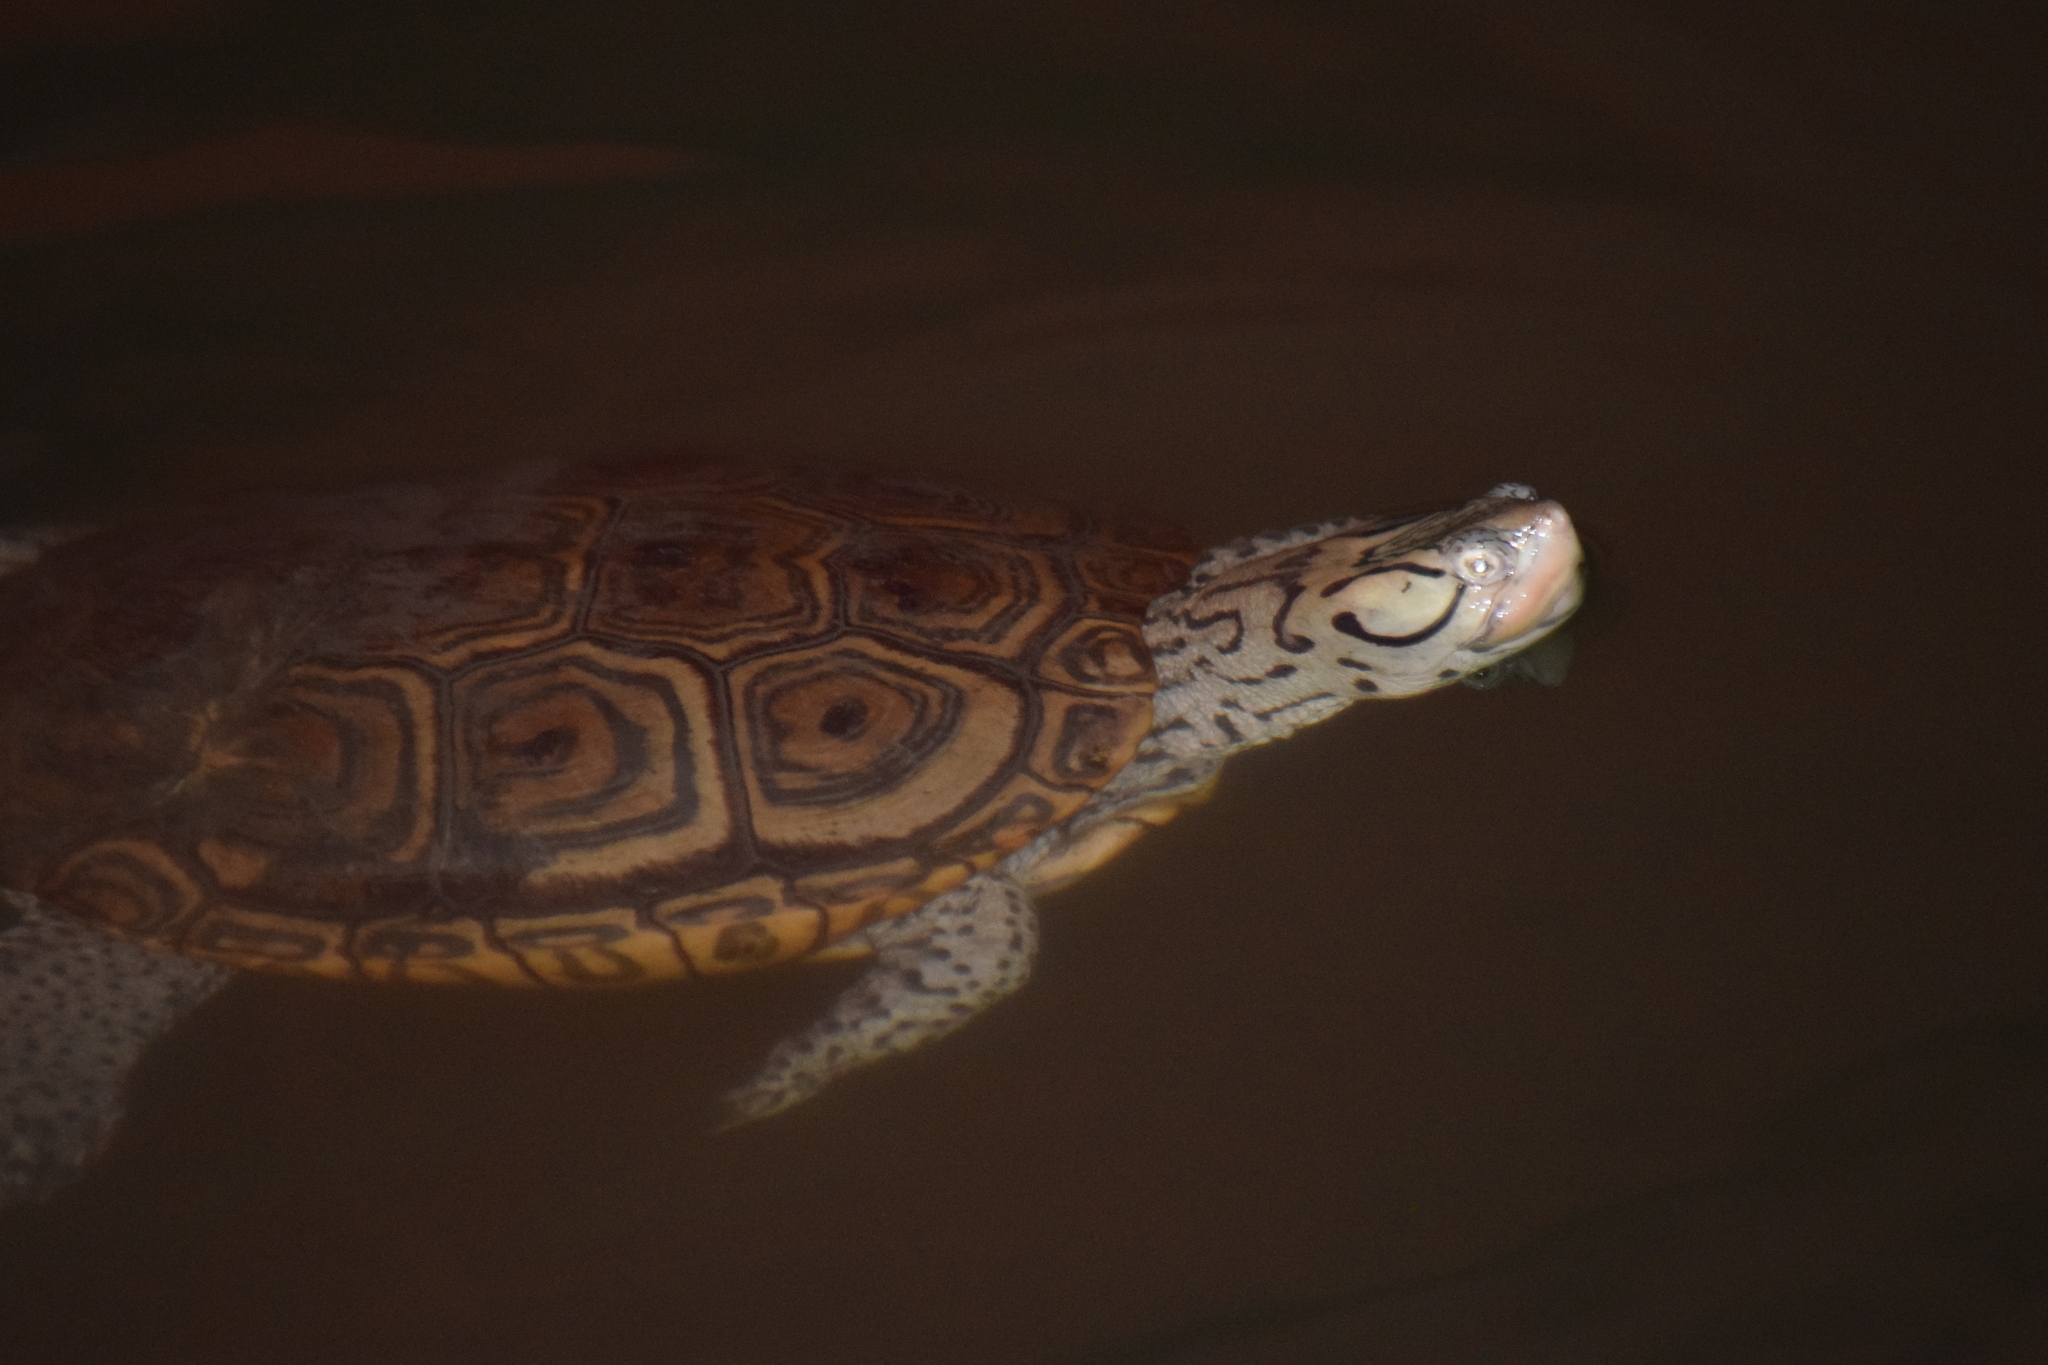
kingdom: Animalia
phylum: Chordata
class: Testudines
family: Emydidae
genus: Malaclemys
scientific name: Malaclemys terrapin
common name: Diamondback terrapin
